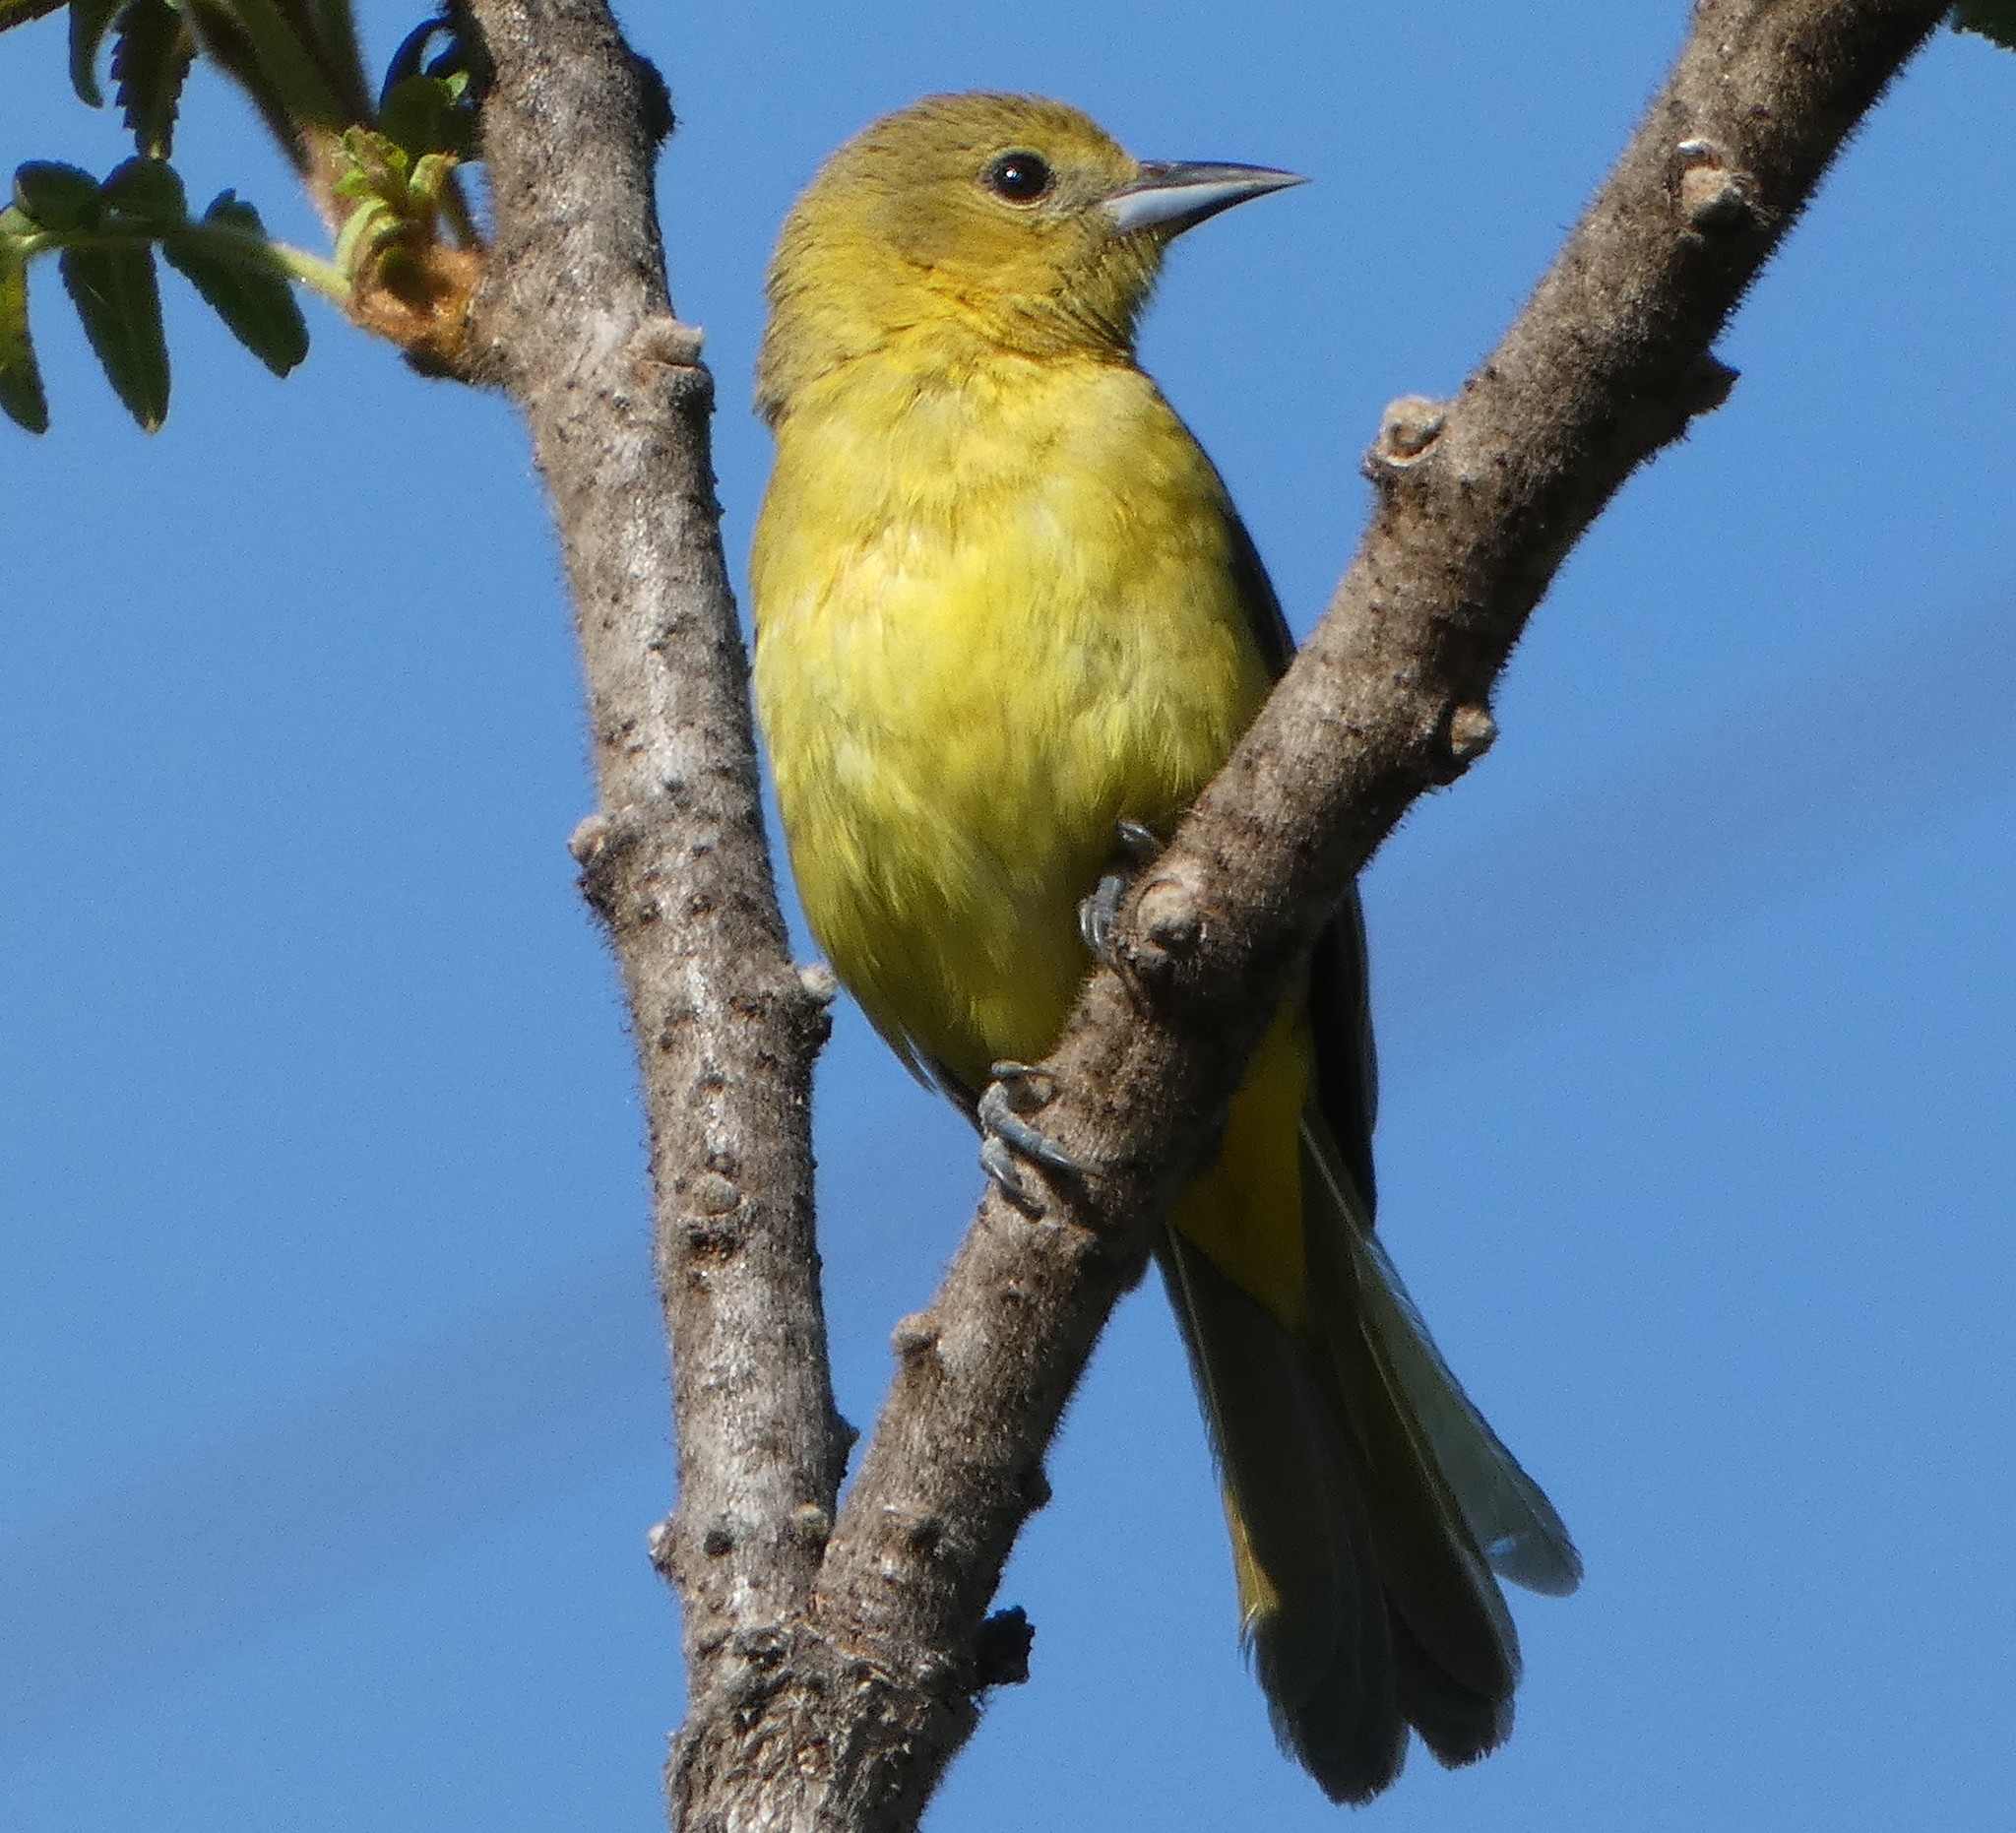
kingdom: Animalia
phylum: Chordata
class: Aves
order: Passeriformes
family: Icteridae
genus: Icterus
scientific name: Icterus spurius
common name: Orchard oriole
